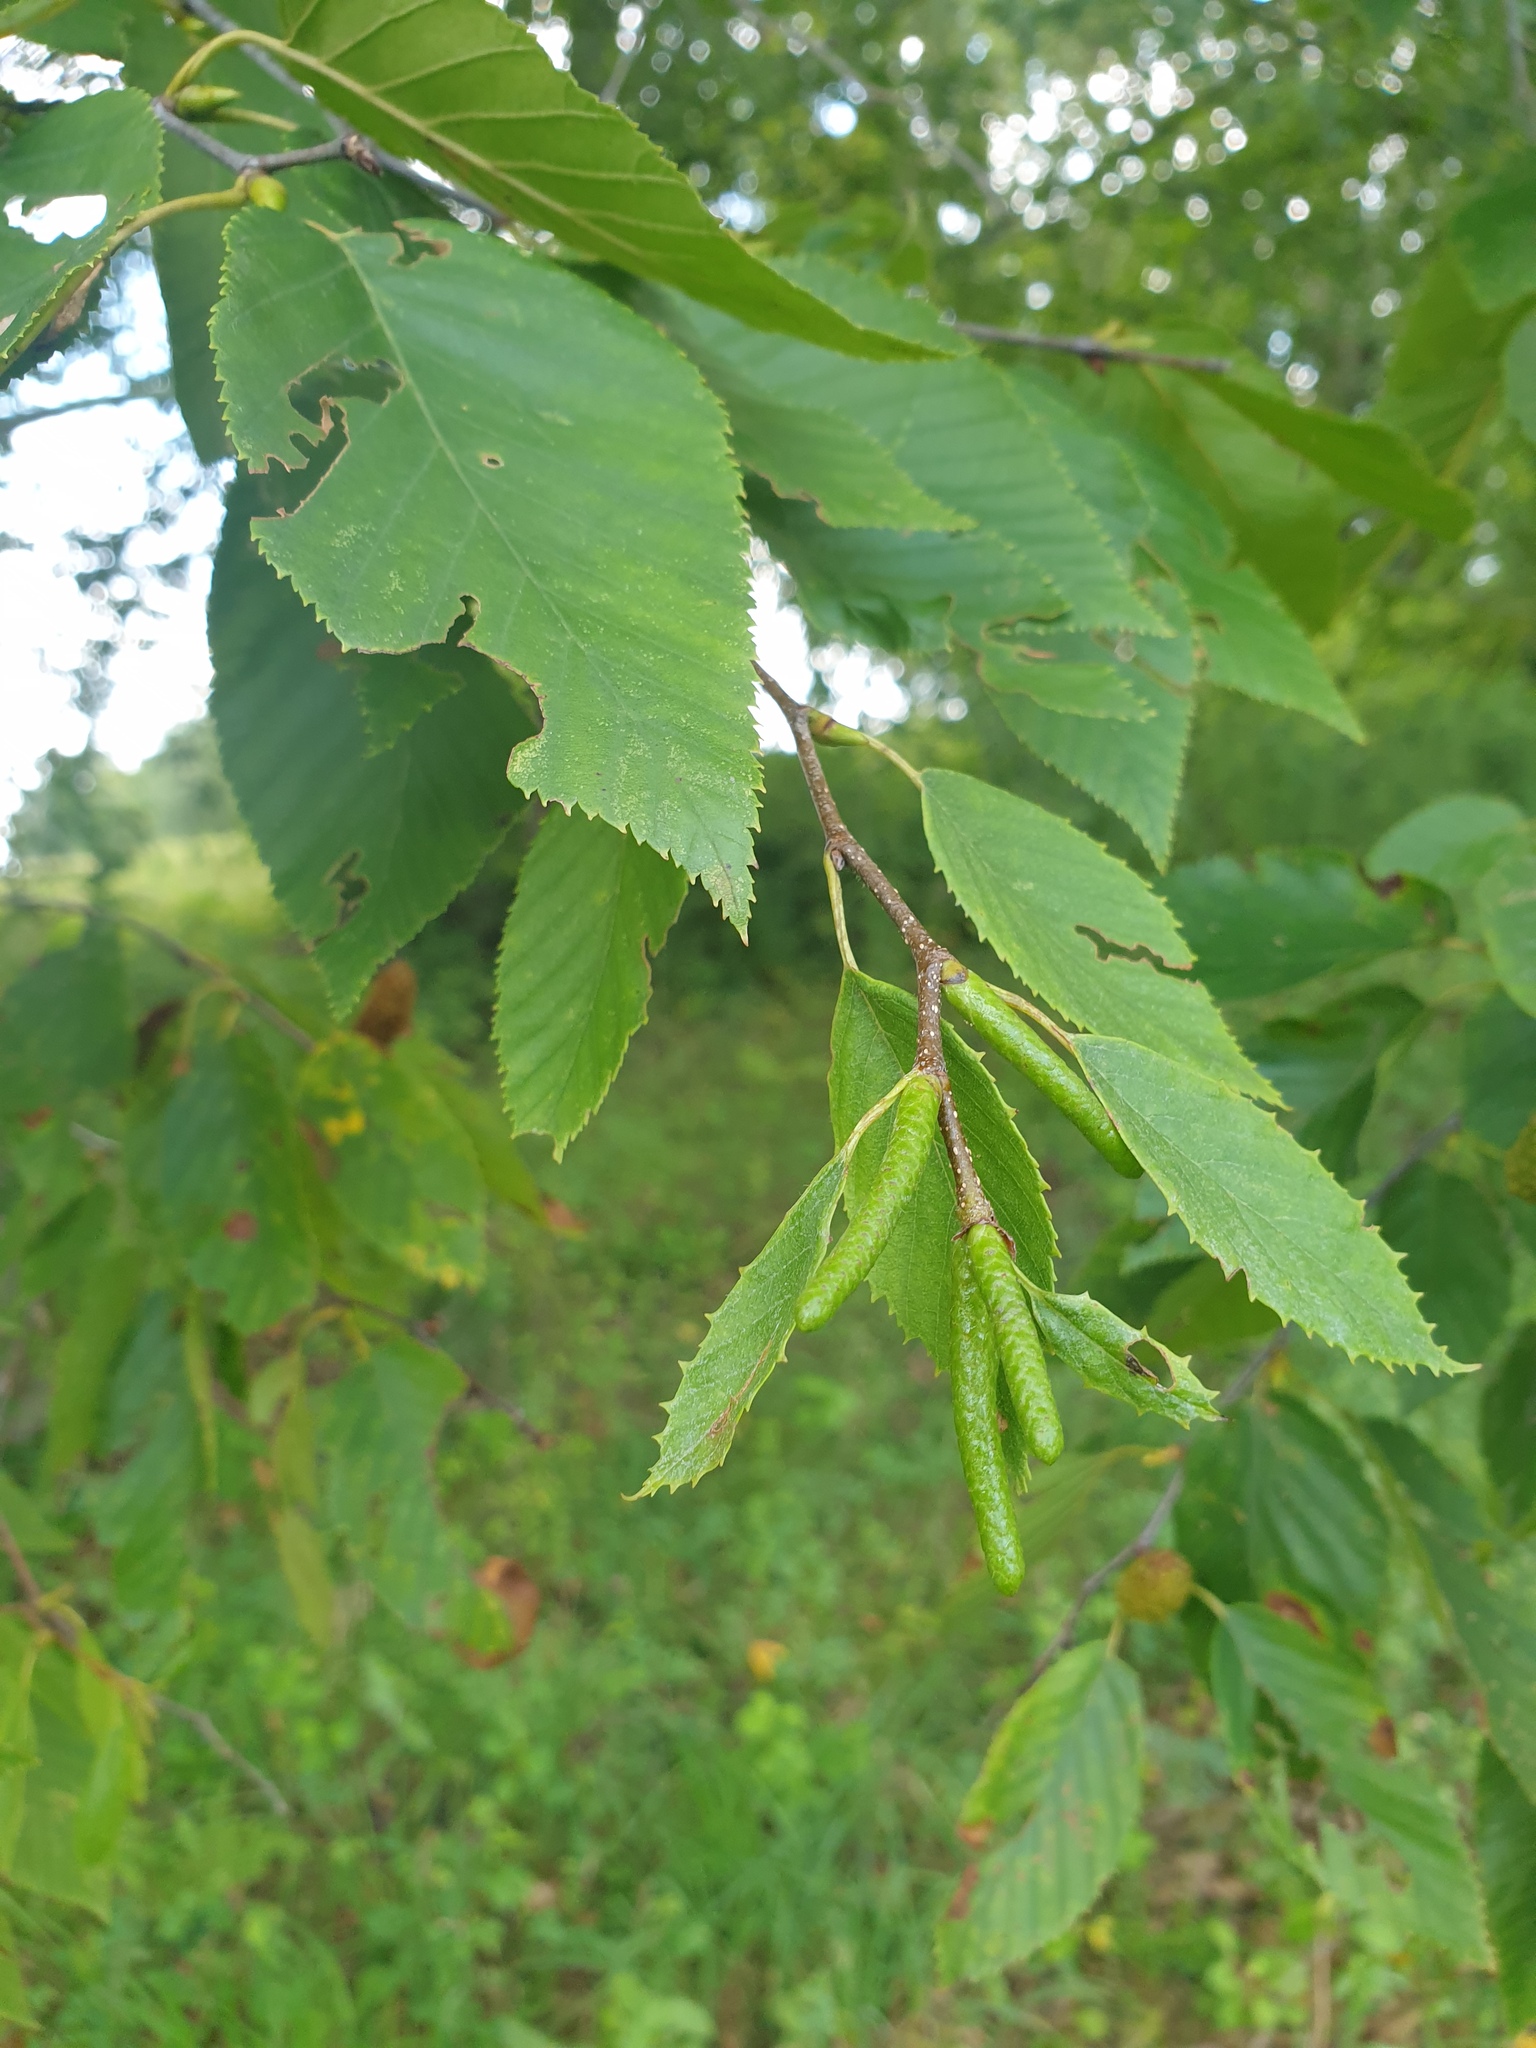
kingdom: Plantae
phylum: Tracheophyta
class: Magnoliopsida
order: Fagales
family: Betulaceae
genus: Betula
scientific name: Betula lenta
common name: Black birch
